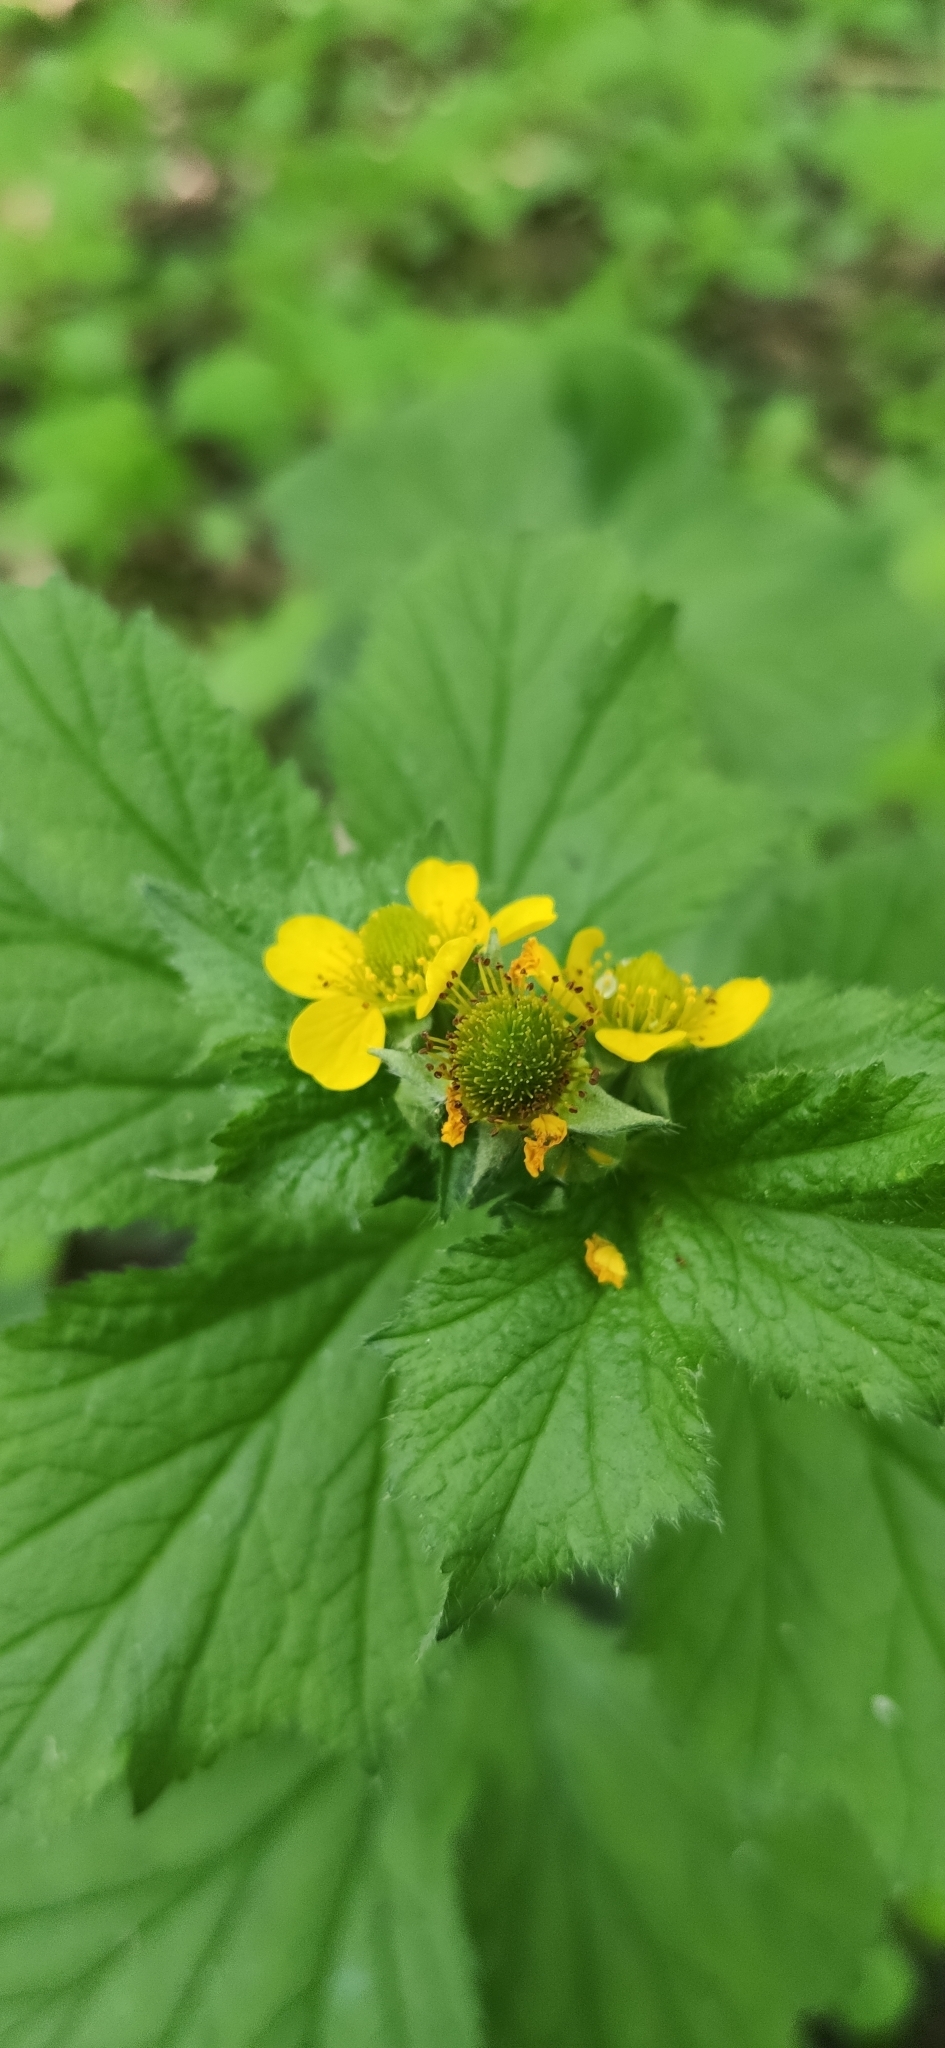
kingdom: Plantae
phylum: Tracheophyta
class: Magnoliopsida
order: Rosales
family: Rosaceae
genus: Geum
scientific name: Geum macrophyllum
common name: Large-leaved avens
